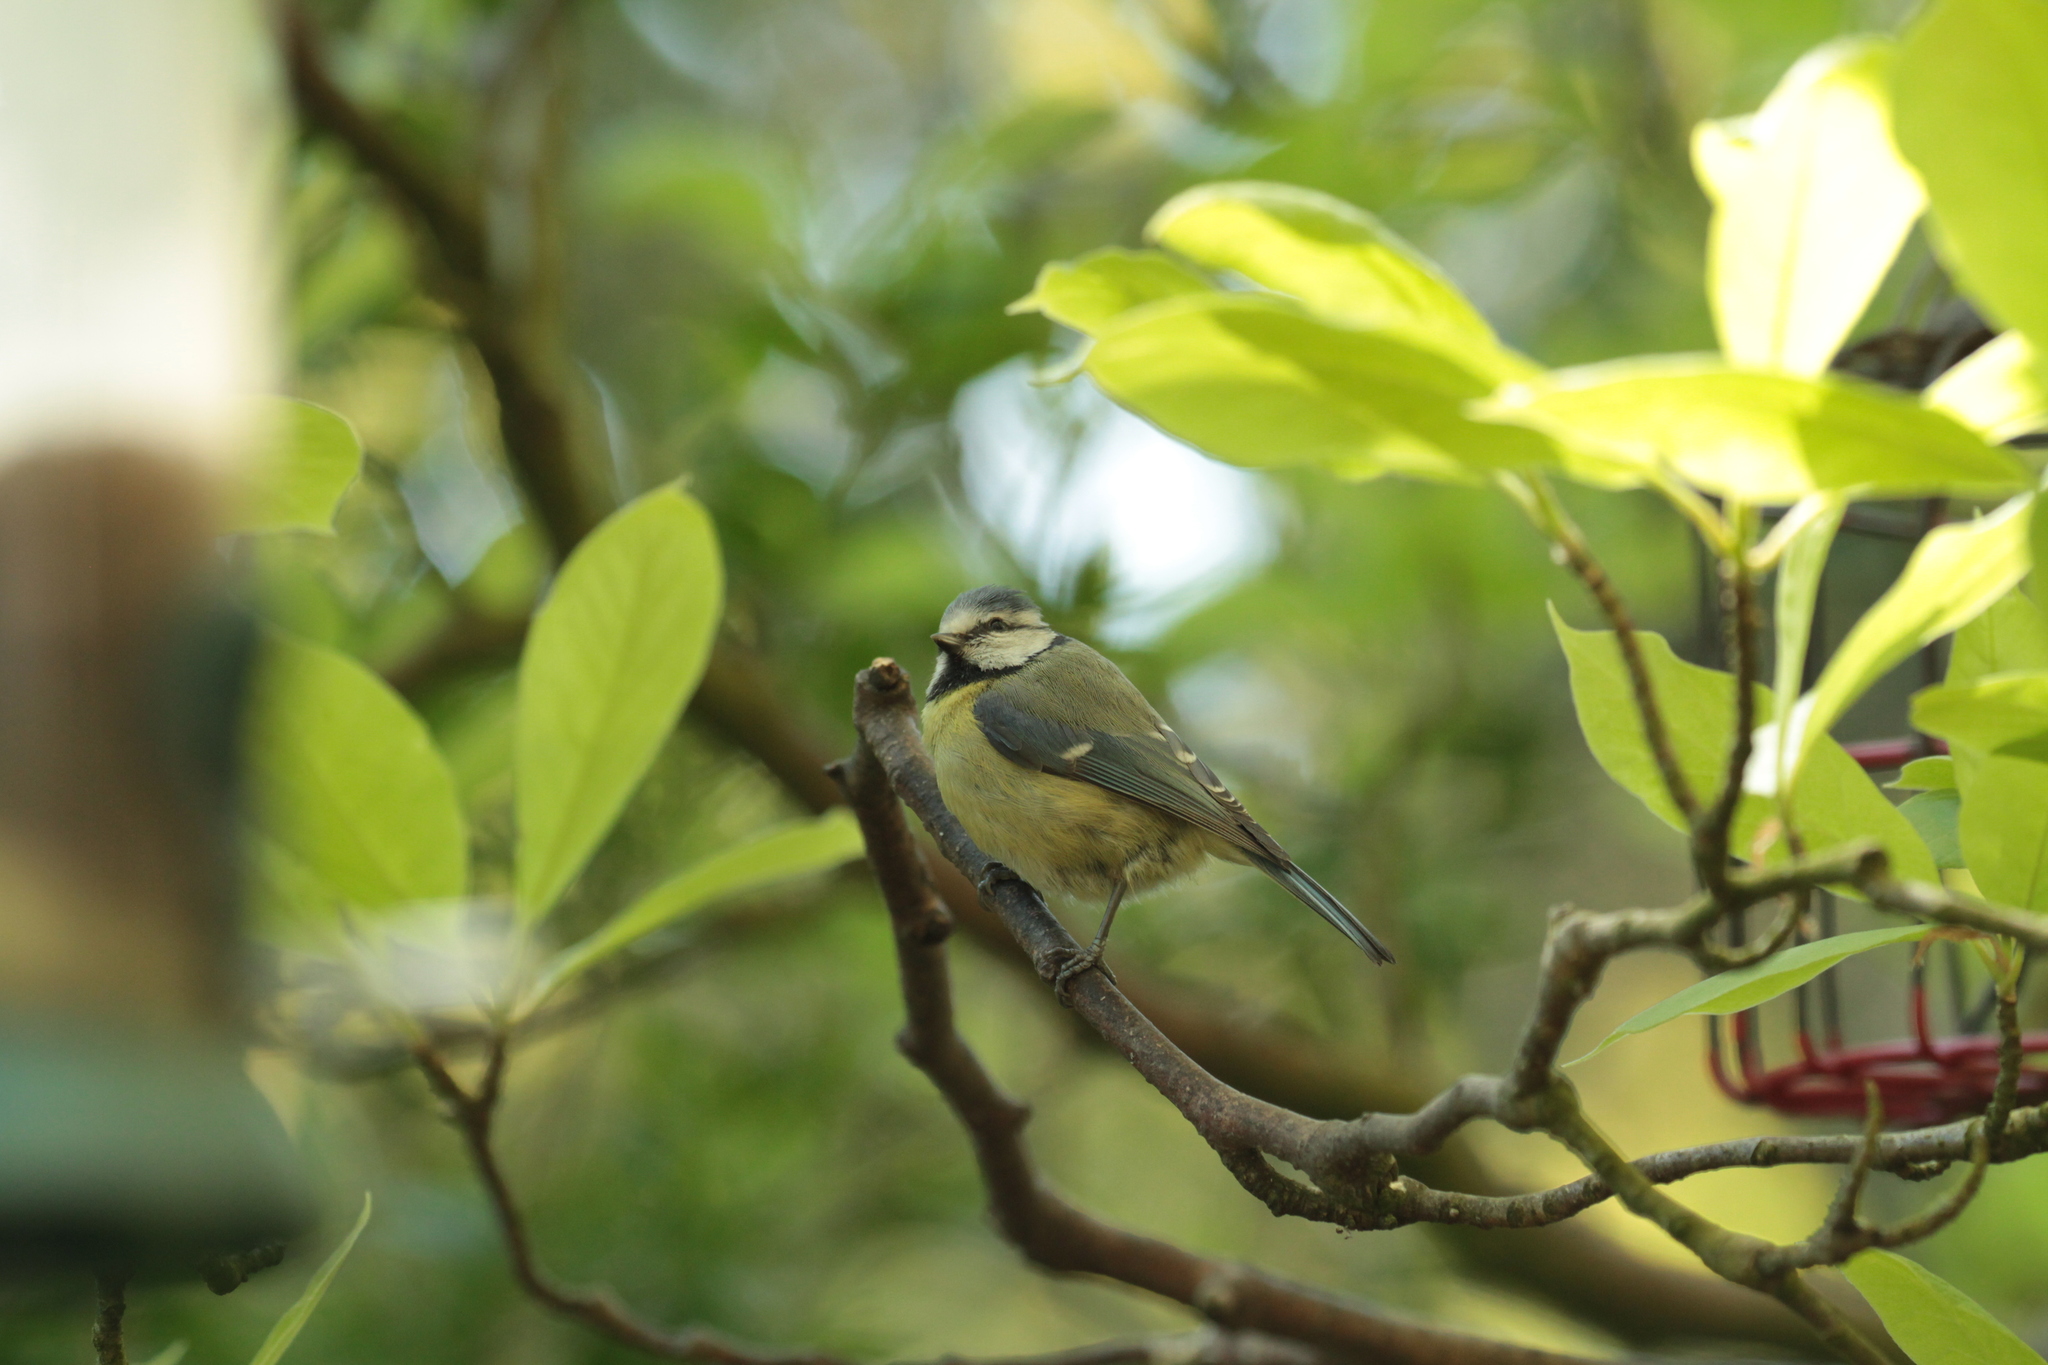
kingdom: Animalia
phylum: Chordata
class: Aves
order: Passeriformes
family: Paridae
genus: Cyanistes
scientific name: Cyanistes caeruleus
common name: Eurasian blue tit
